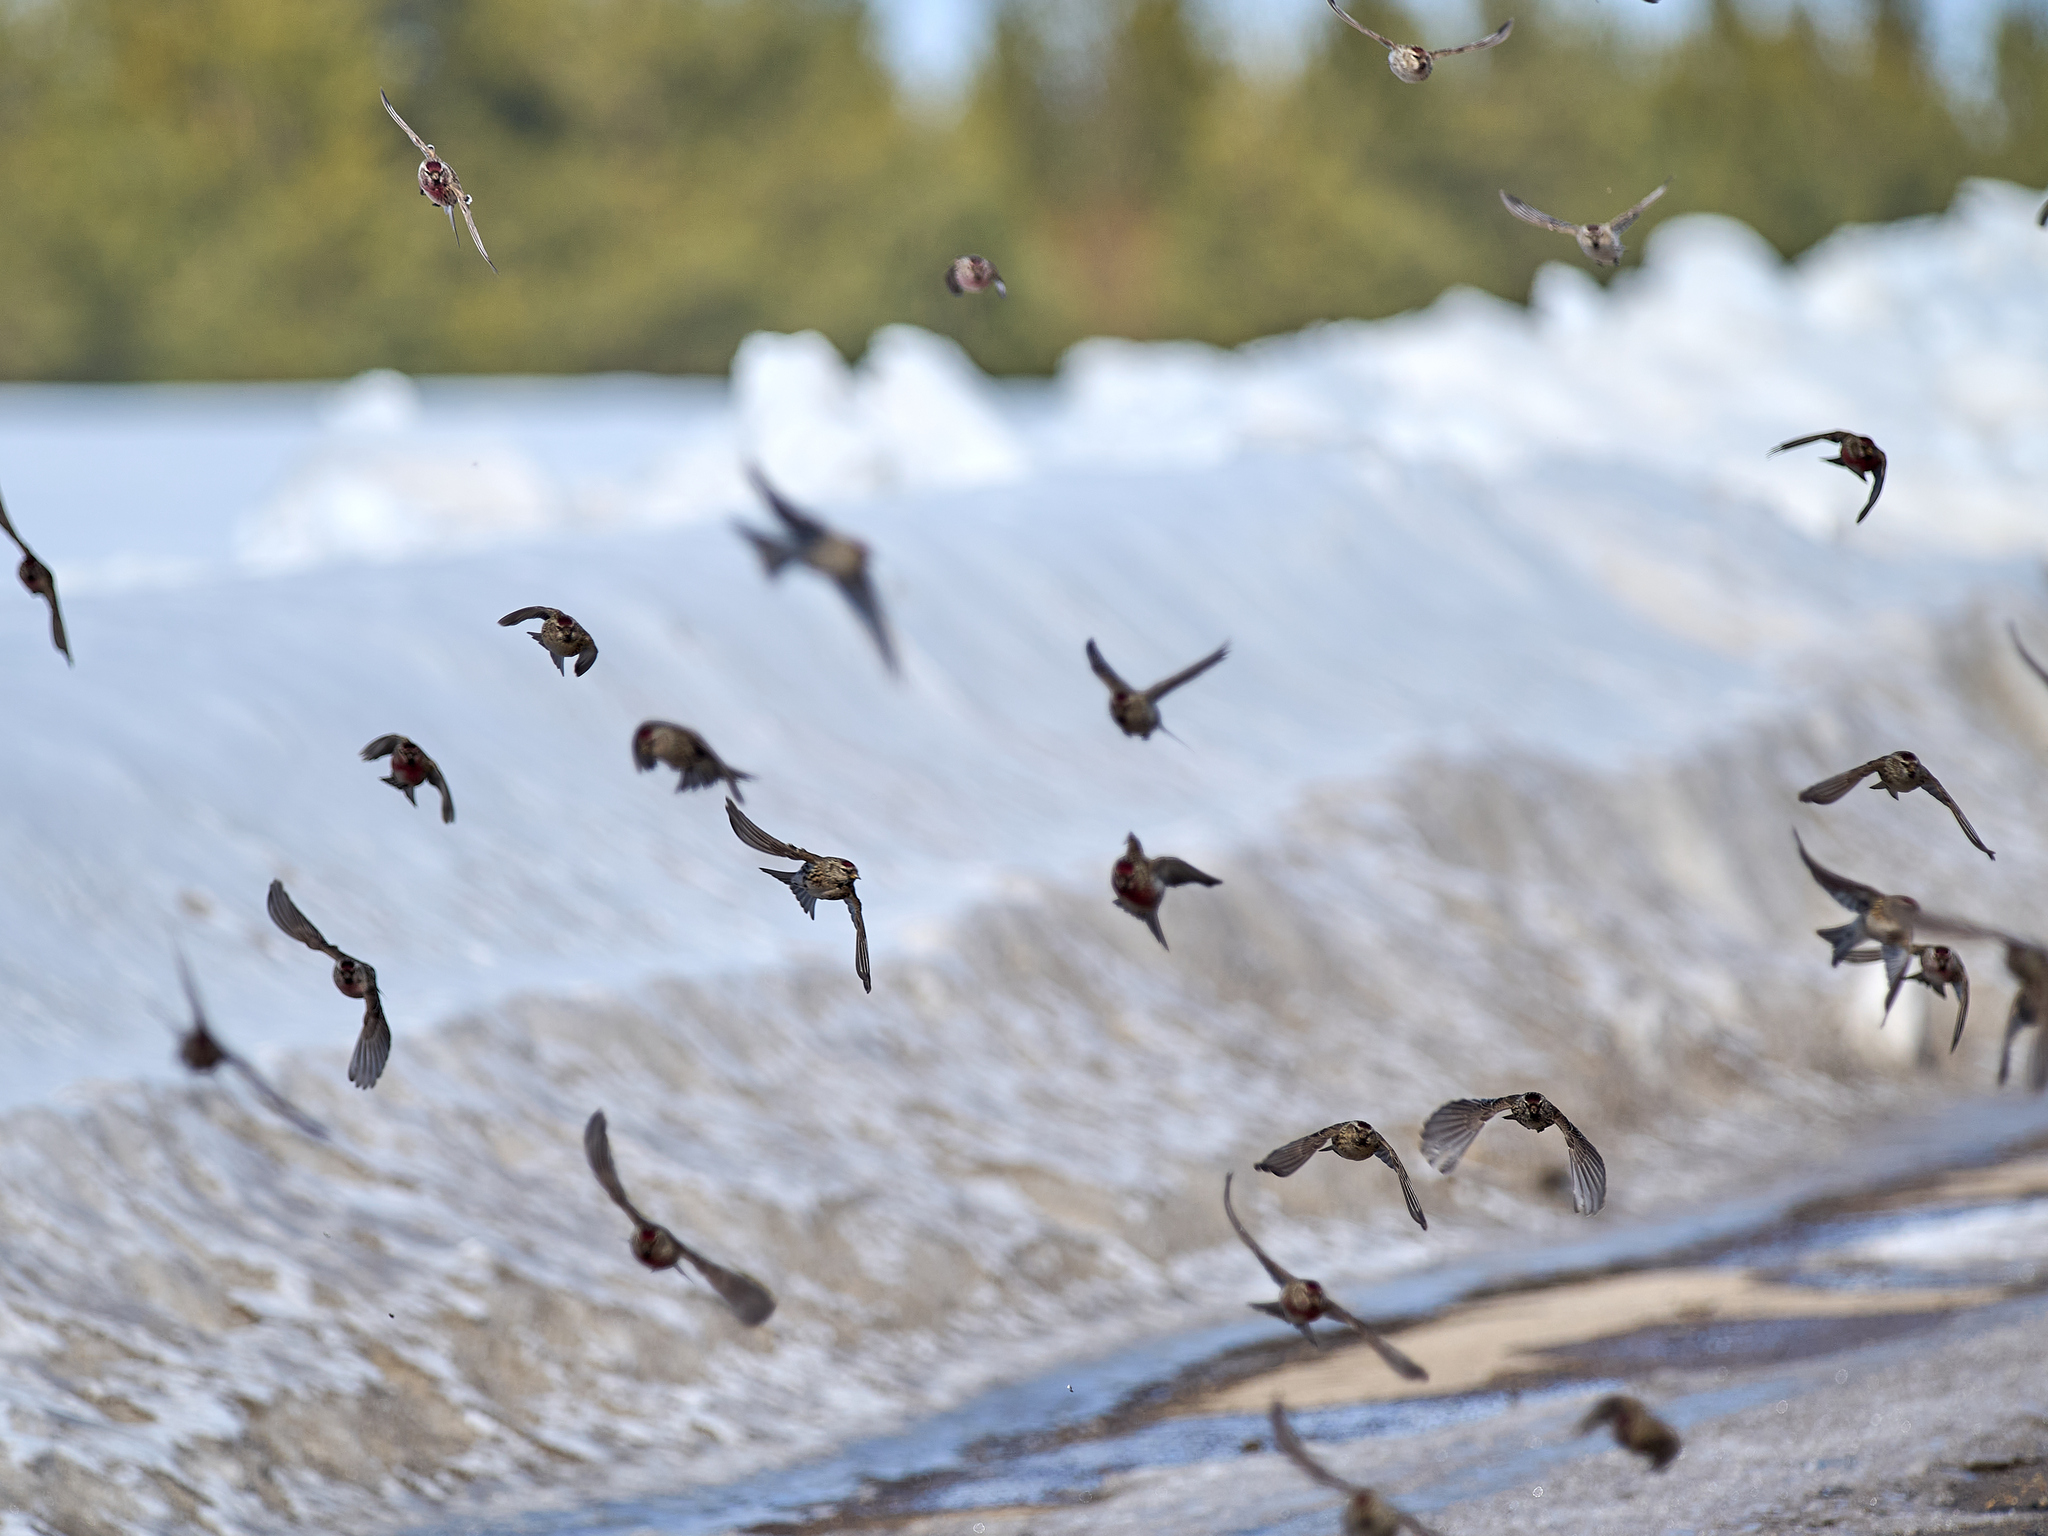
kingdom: Animalia
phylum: Chordata
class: Aves
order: Passeriformes
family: Fringillidae
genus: Acanthis
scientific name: Acanthis flammea
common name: Common redpoll
